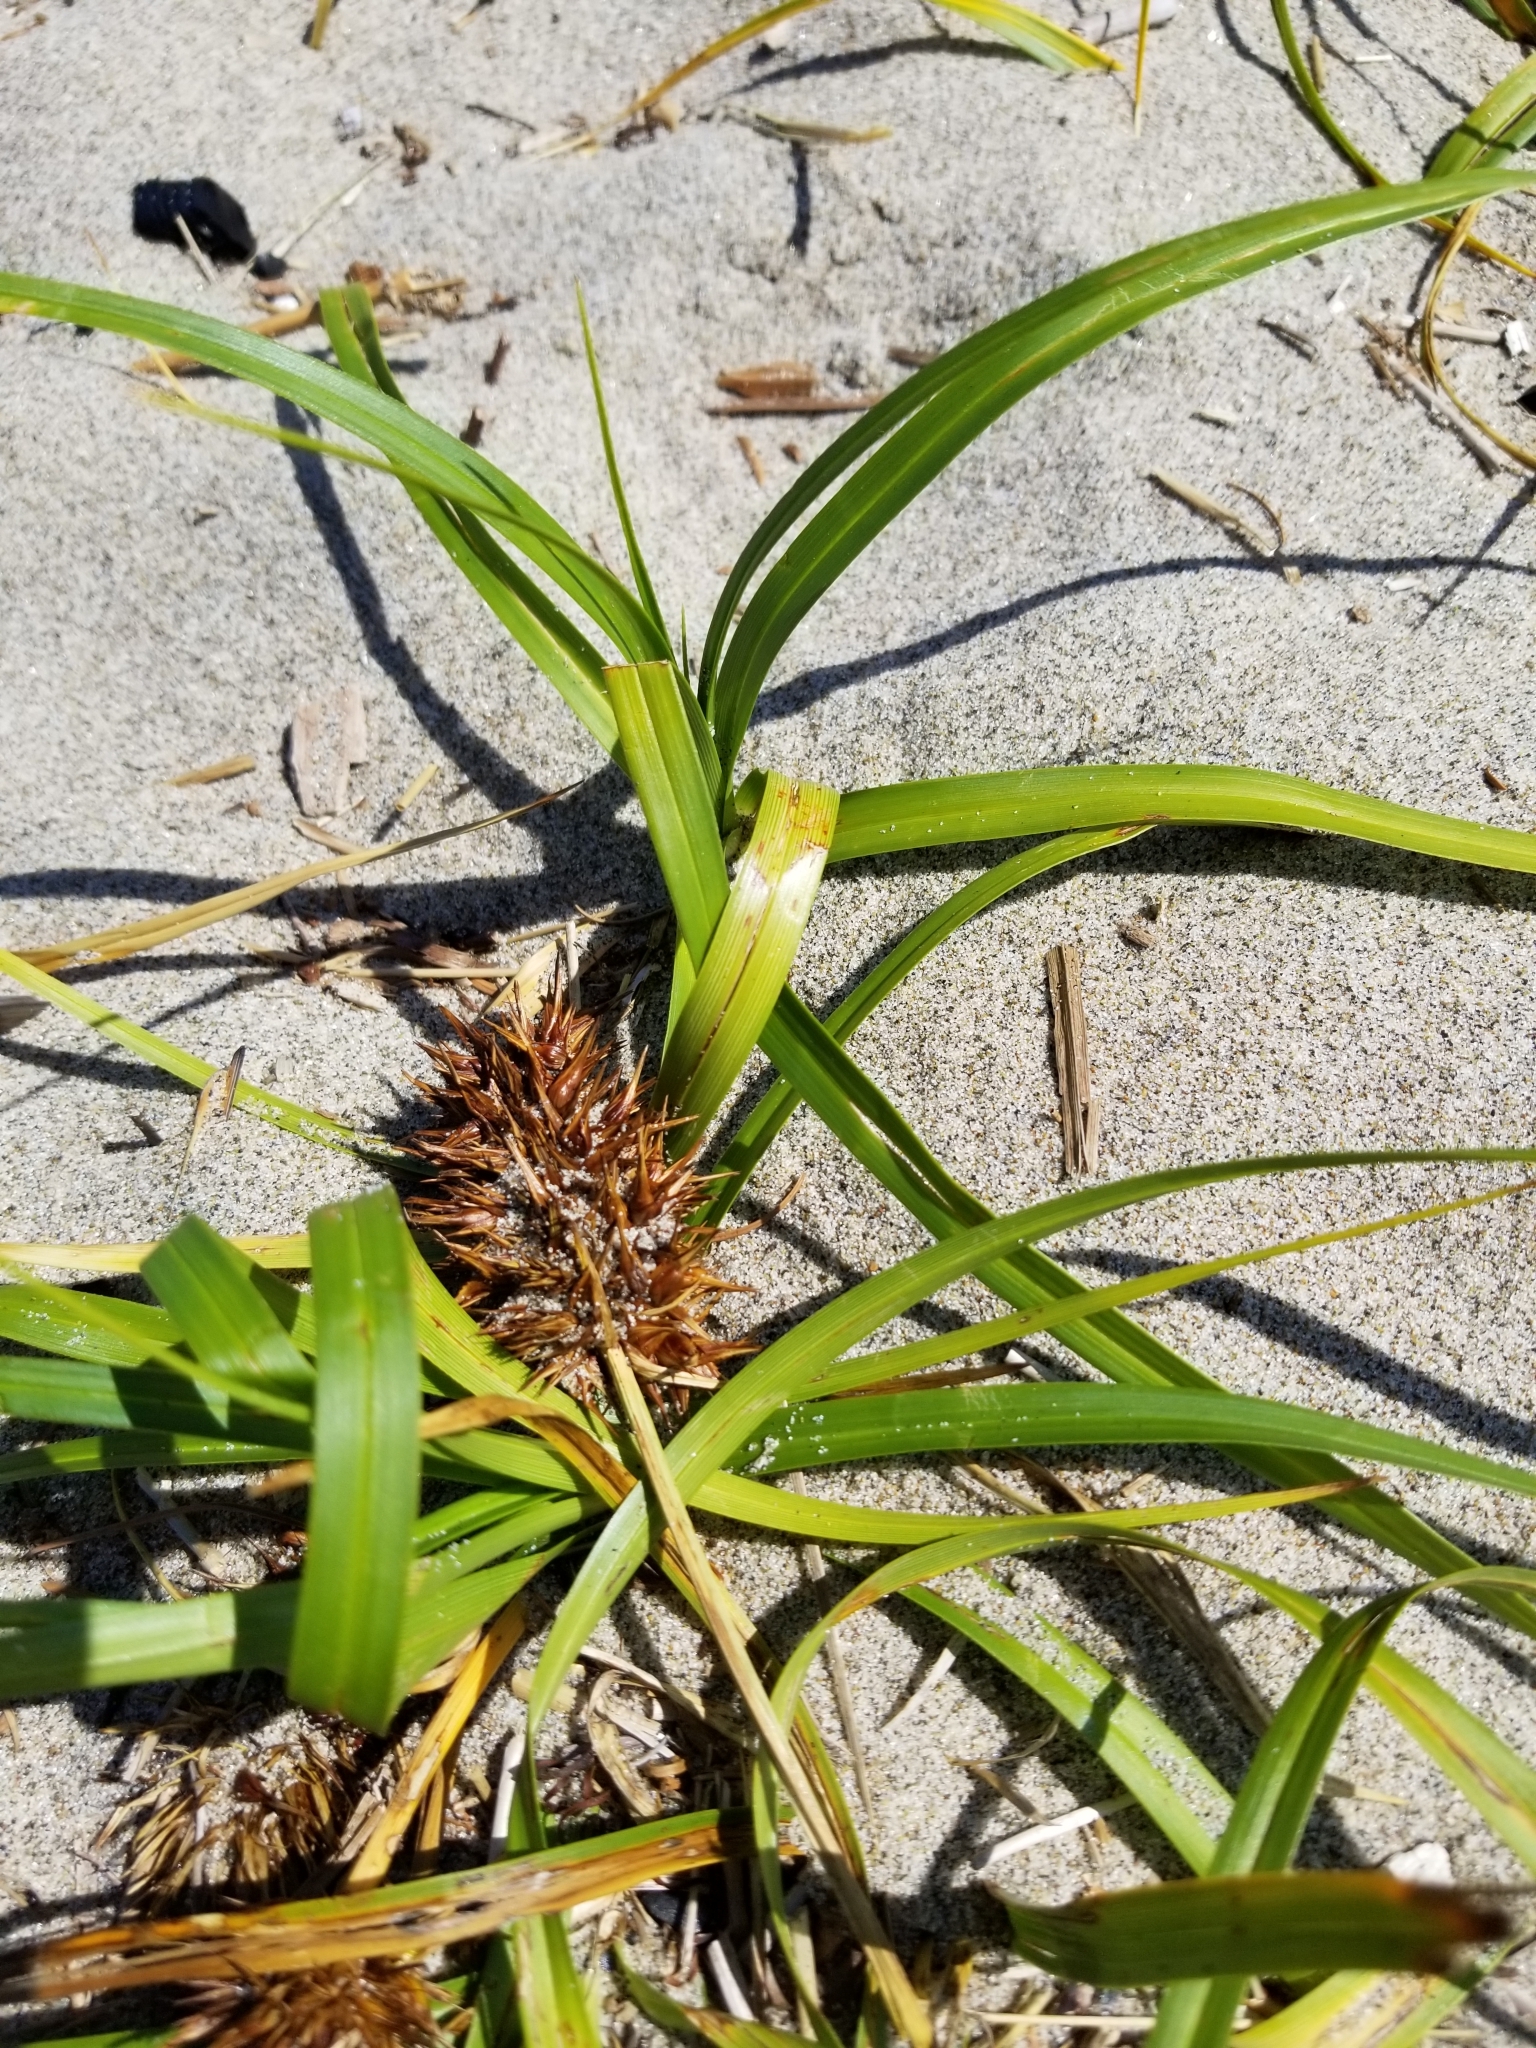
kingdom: Plantae
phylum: Tracheophyta
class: Liliopsida
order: Poales
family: Cyperaceae
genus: Carex
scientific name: Carex macrocephala
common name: Large-head sedge
